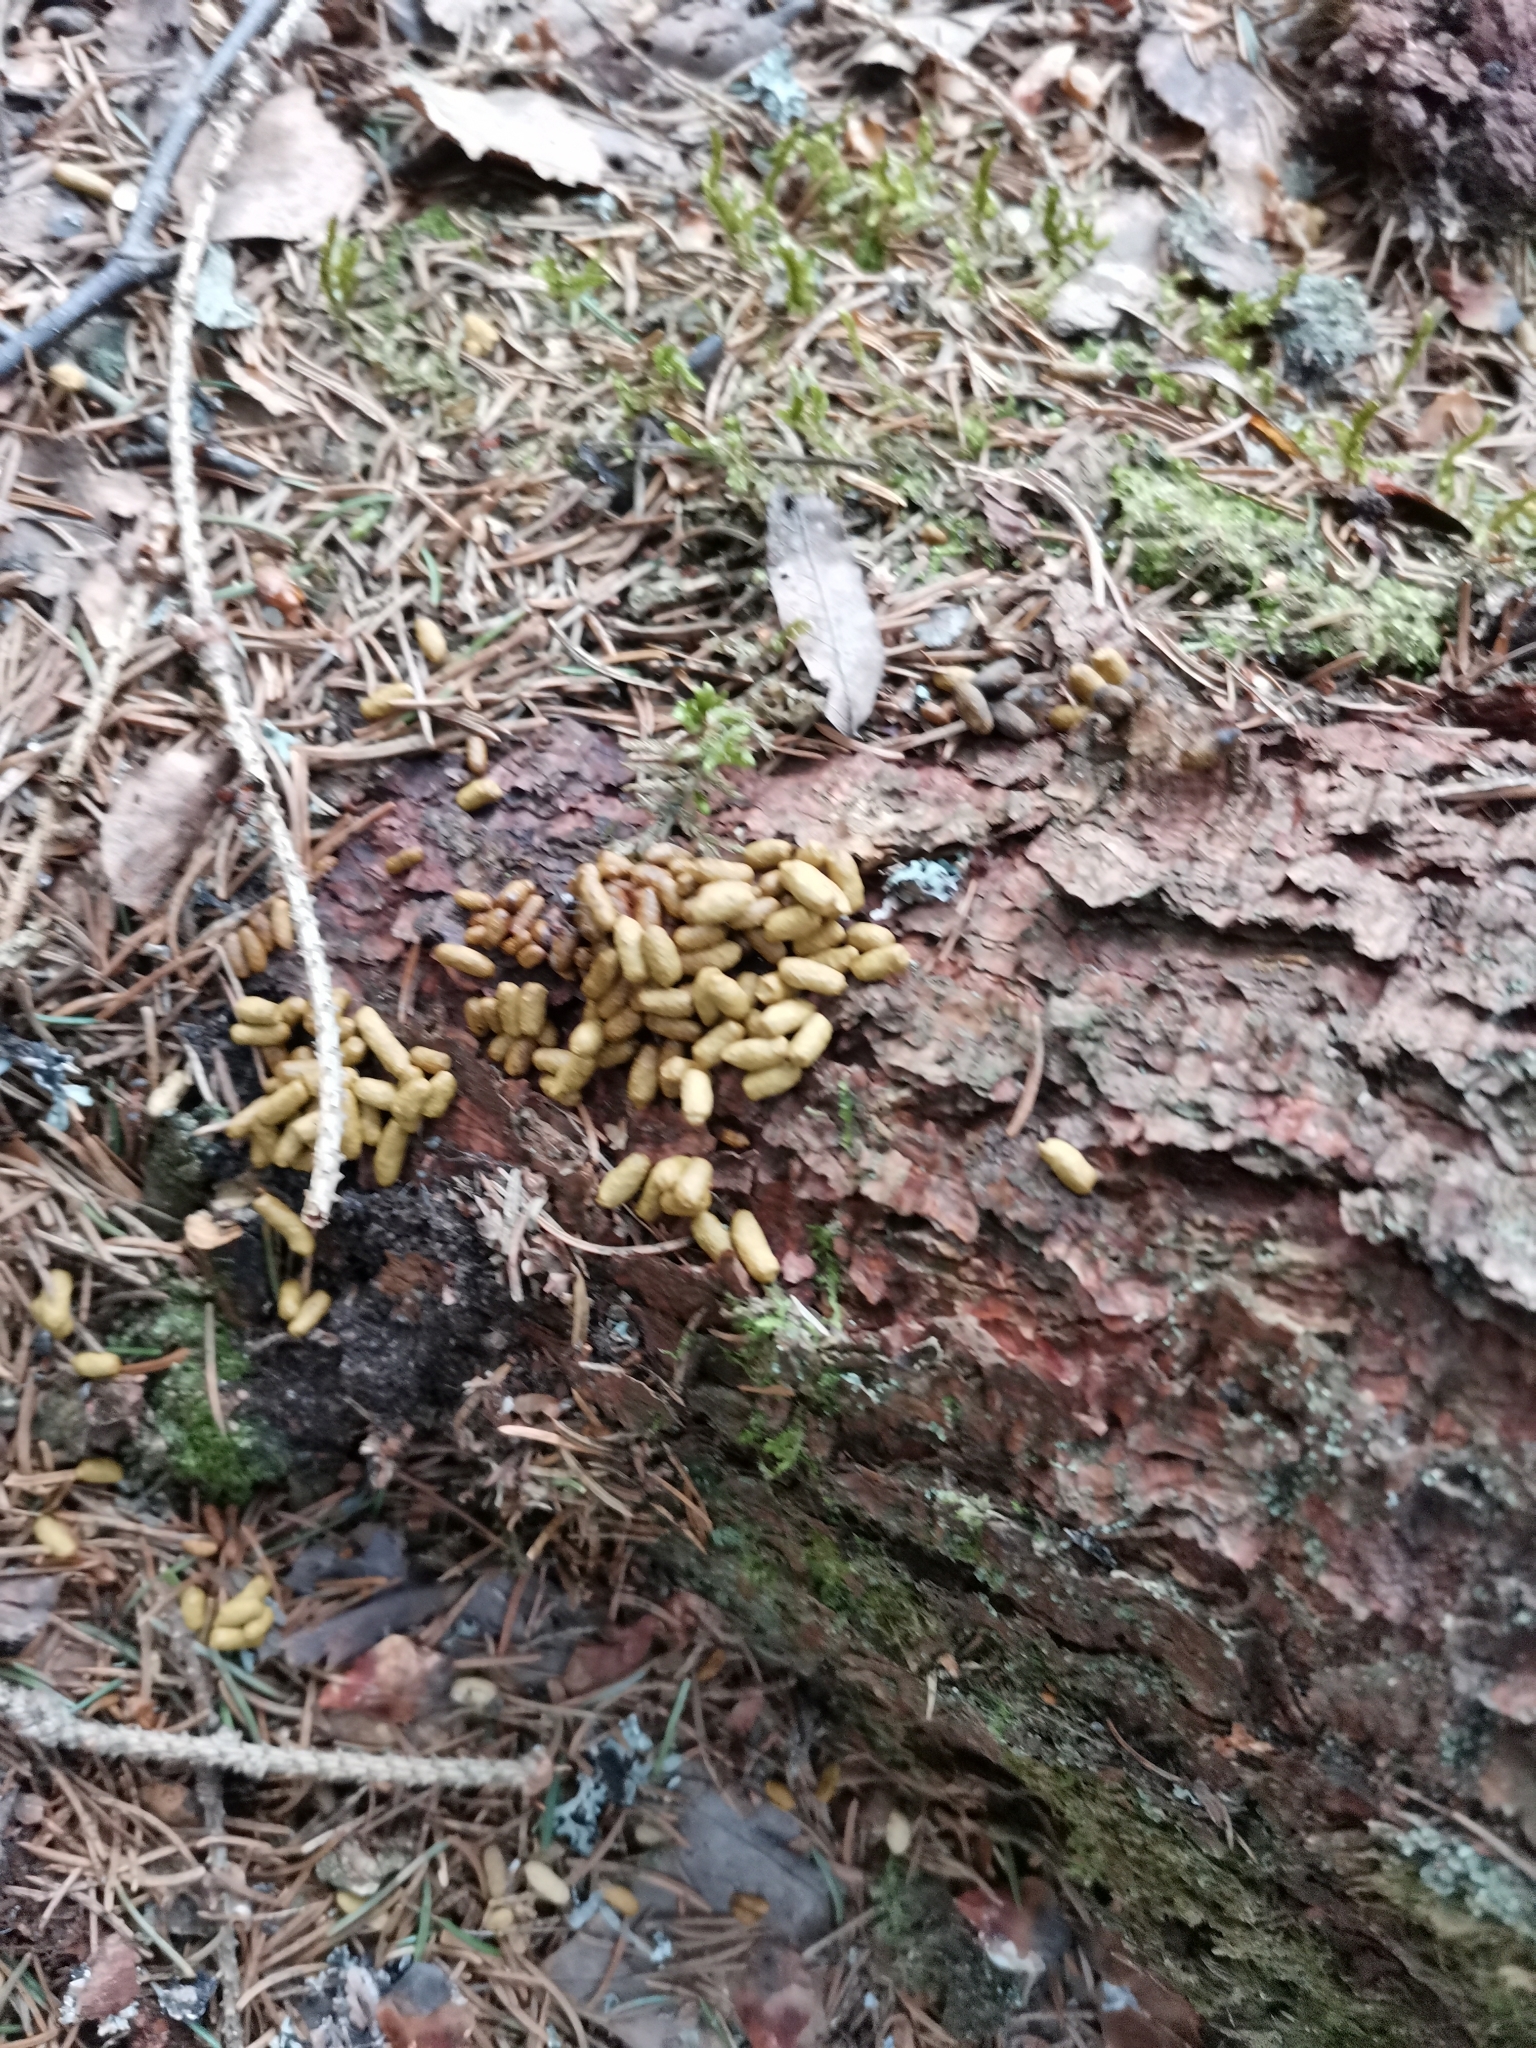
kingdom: Animalia
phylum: Chordata
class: Mammalia
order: Rodentia
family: Sciuridae
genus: Pteromys
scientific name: Pteromys volans
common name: Siberian flying squirrel
